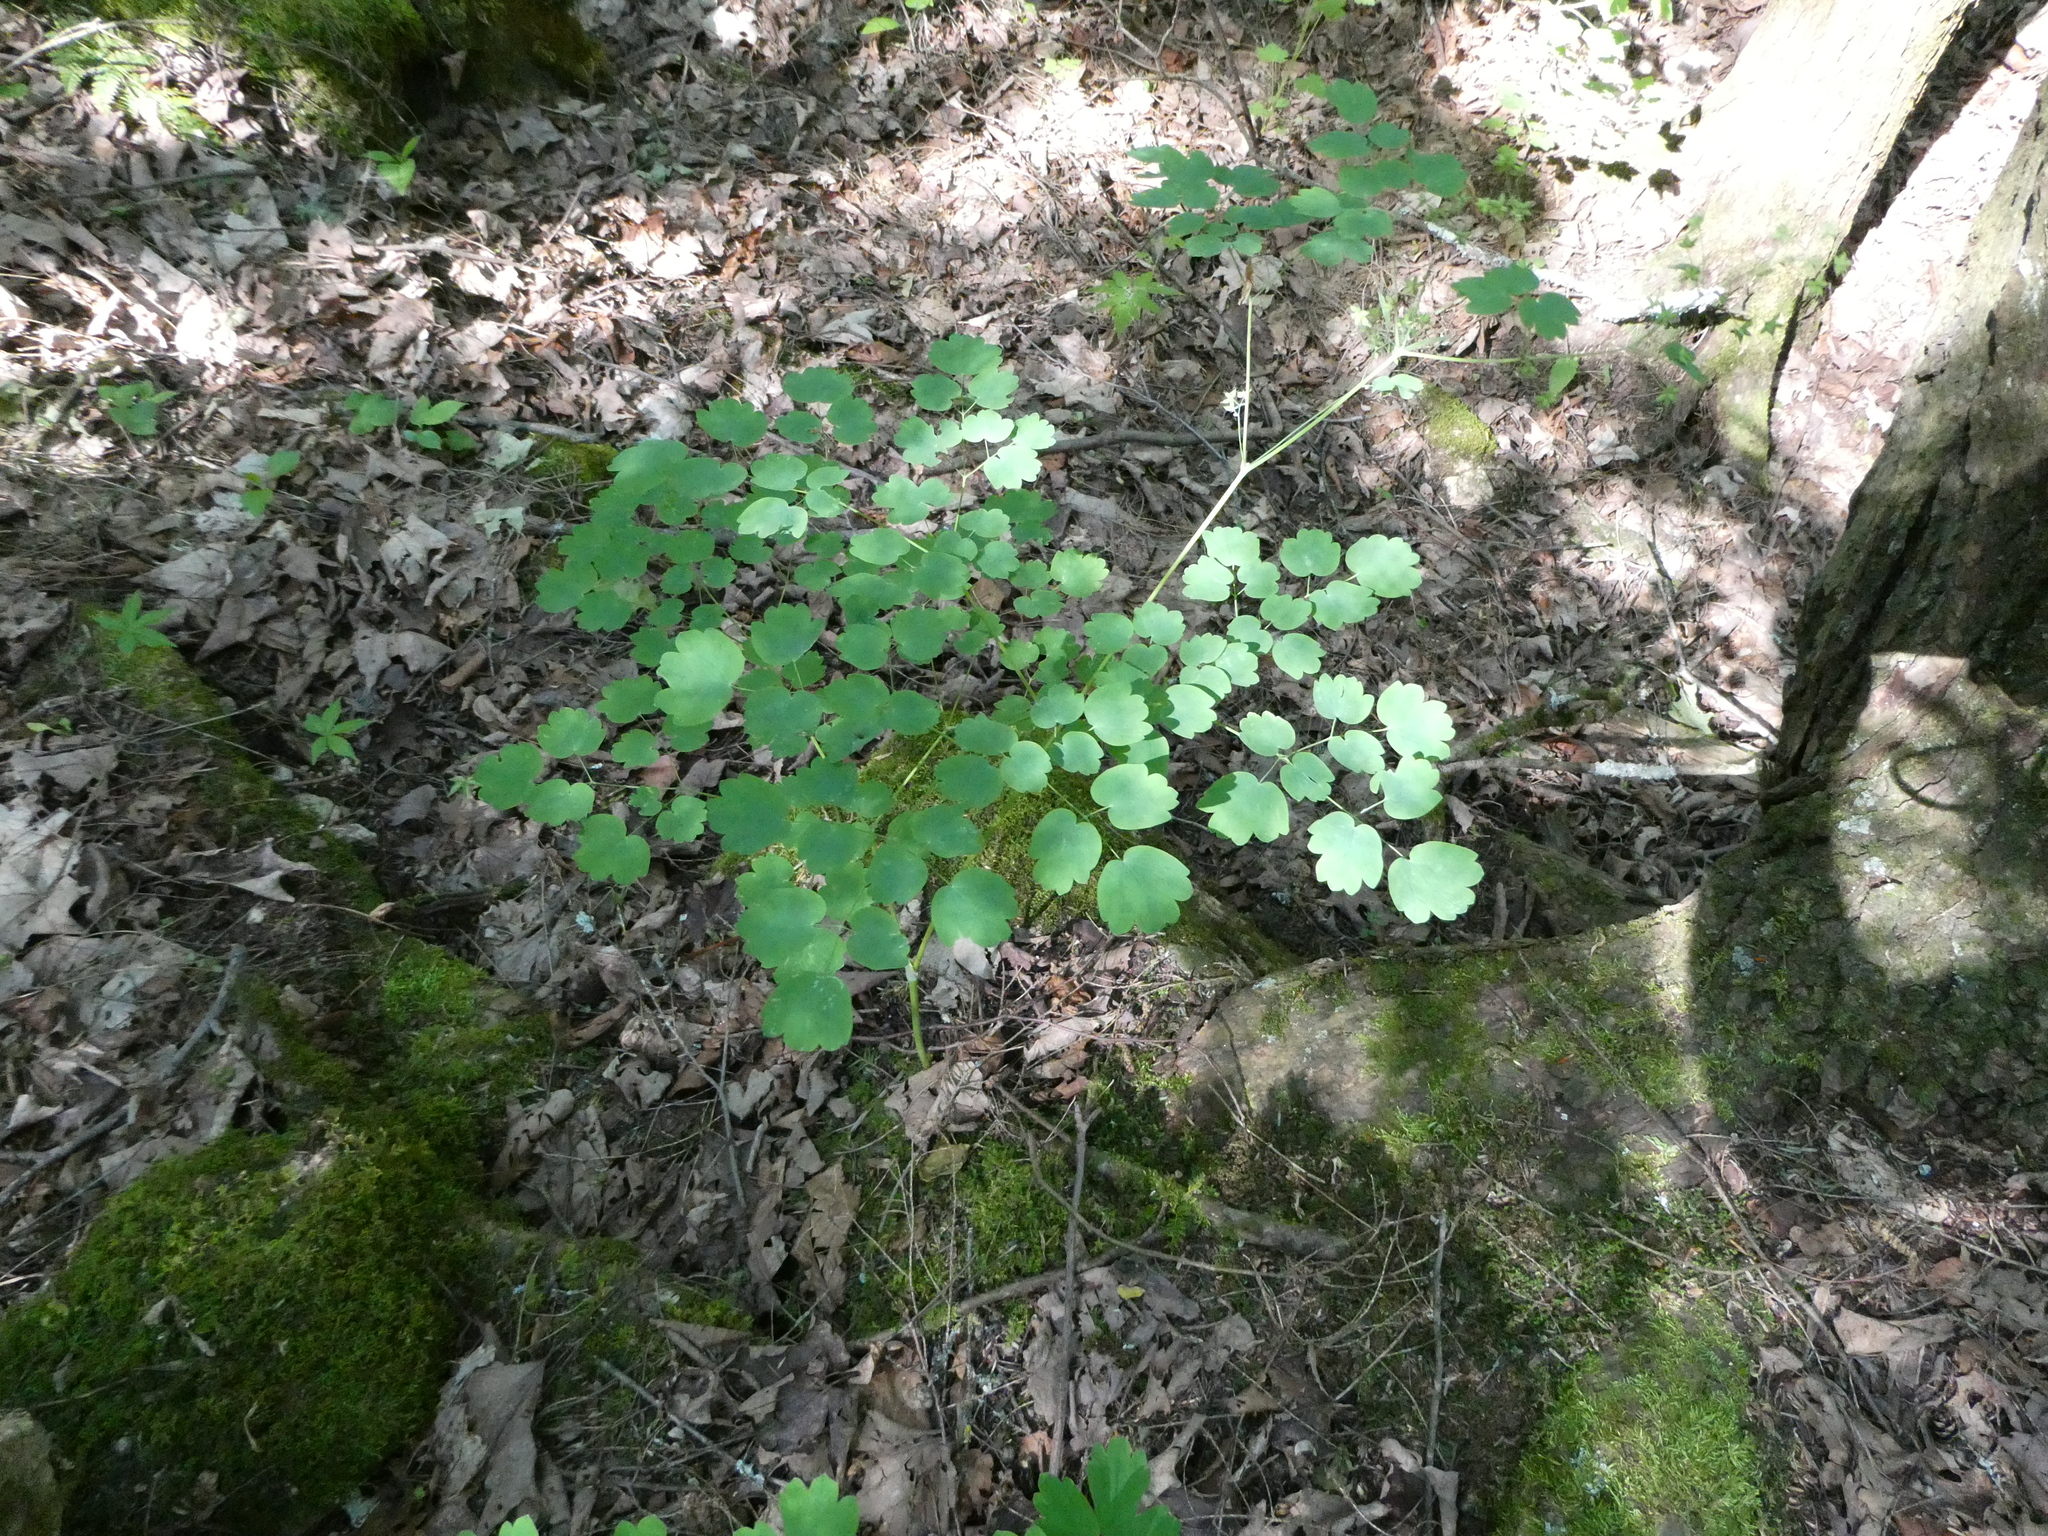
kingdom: Plantae
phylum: Tracheophyta
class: Magnoliopsida
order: Ranunculales
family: Ranunculaceae
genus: Thalictrum
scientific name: Thalictrum dioicum
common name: Early meadow-rue
